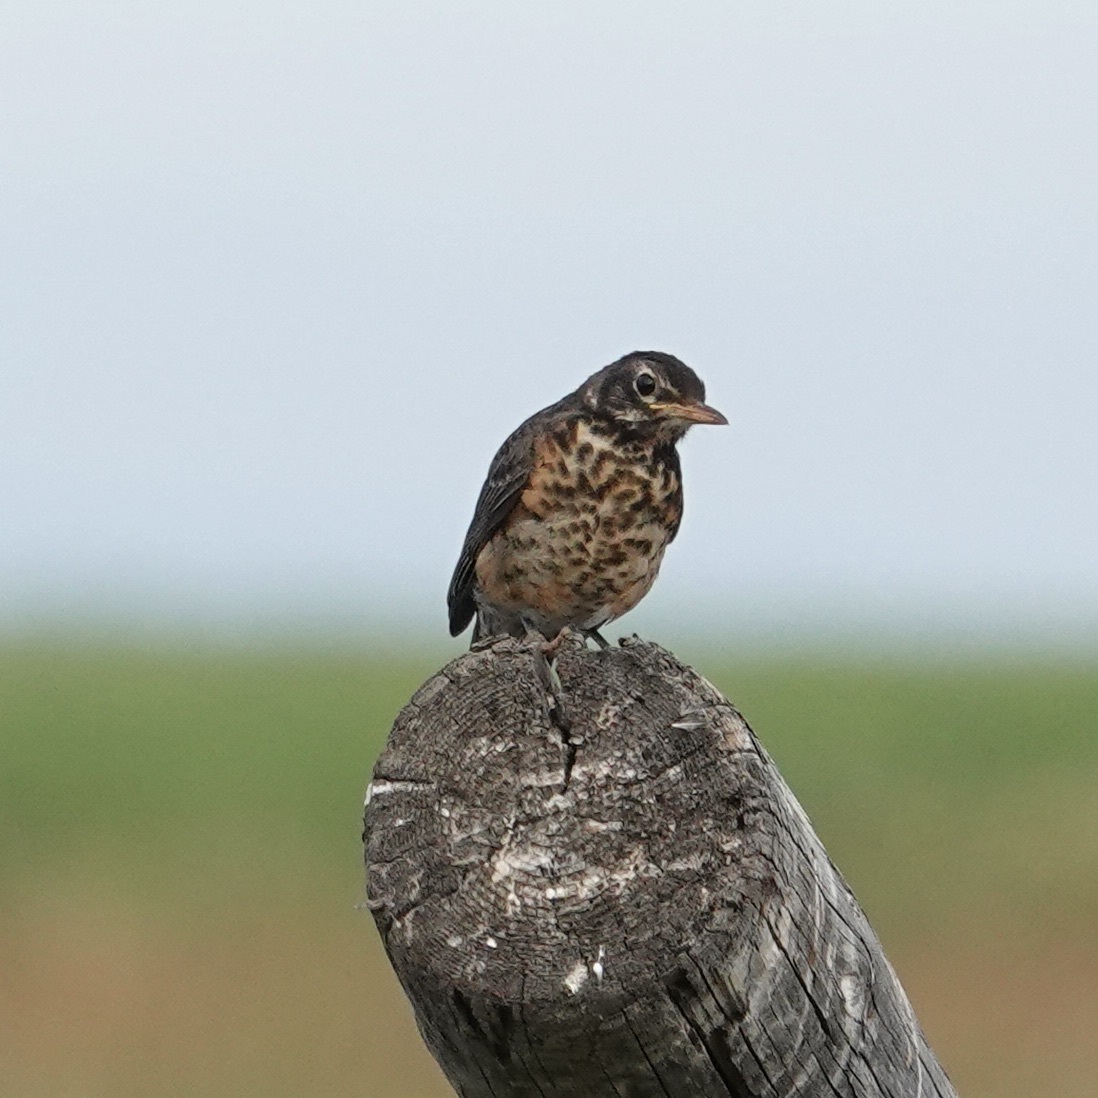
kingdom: Animalia
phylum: Chordata
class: Aves
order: Passeriformes
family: Turdidae
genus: Turdus
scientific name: Turdus migratorius
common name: American robin
